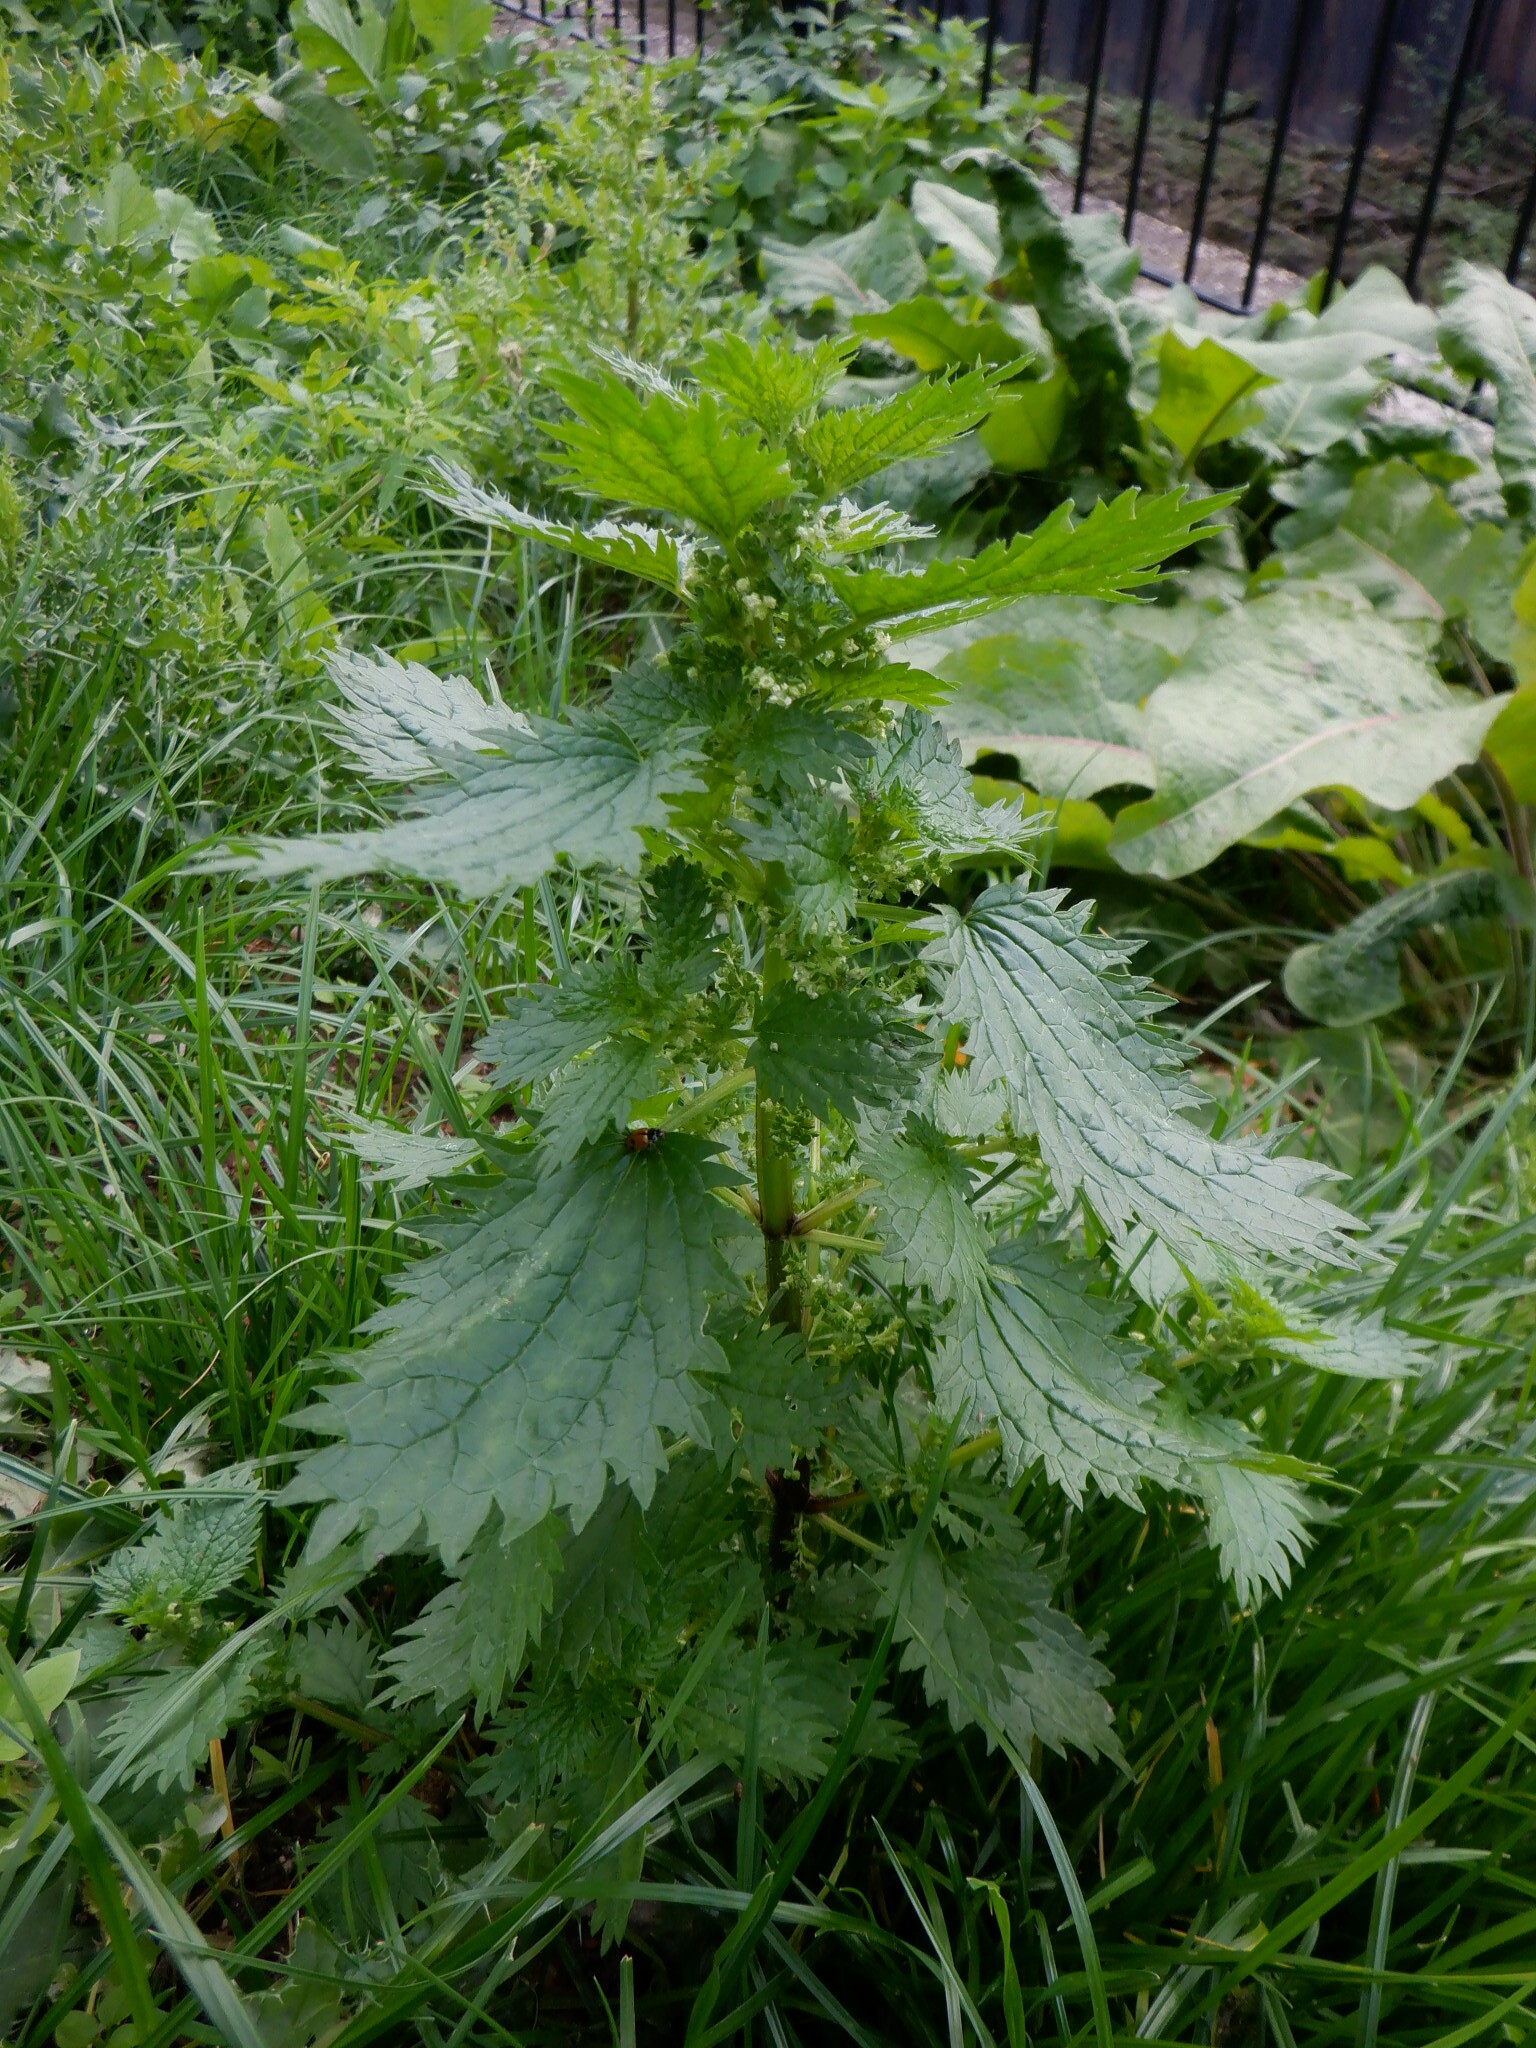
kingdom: Plantae
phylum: Tracheophyta
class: Magnoliopsida
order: Rosales
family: Urticaceae
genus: Urtica
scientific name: Urtica urens
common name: Dwarf nettle
